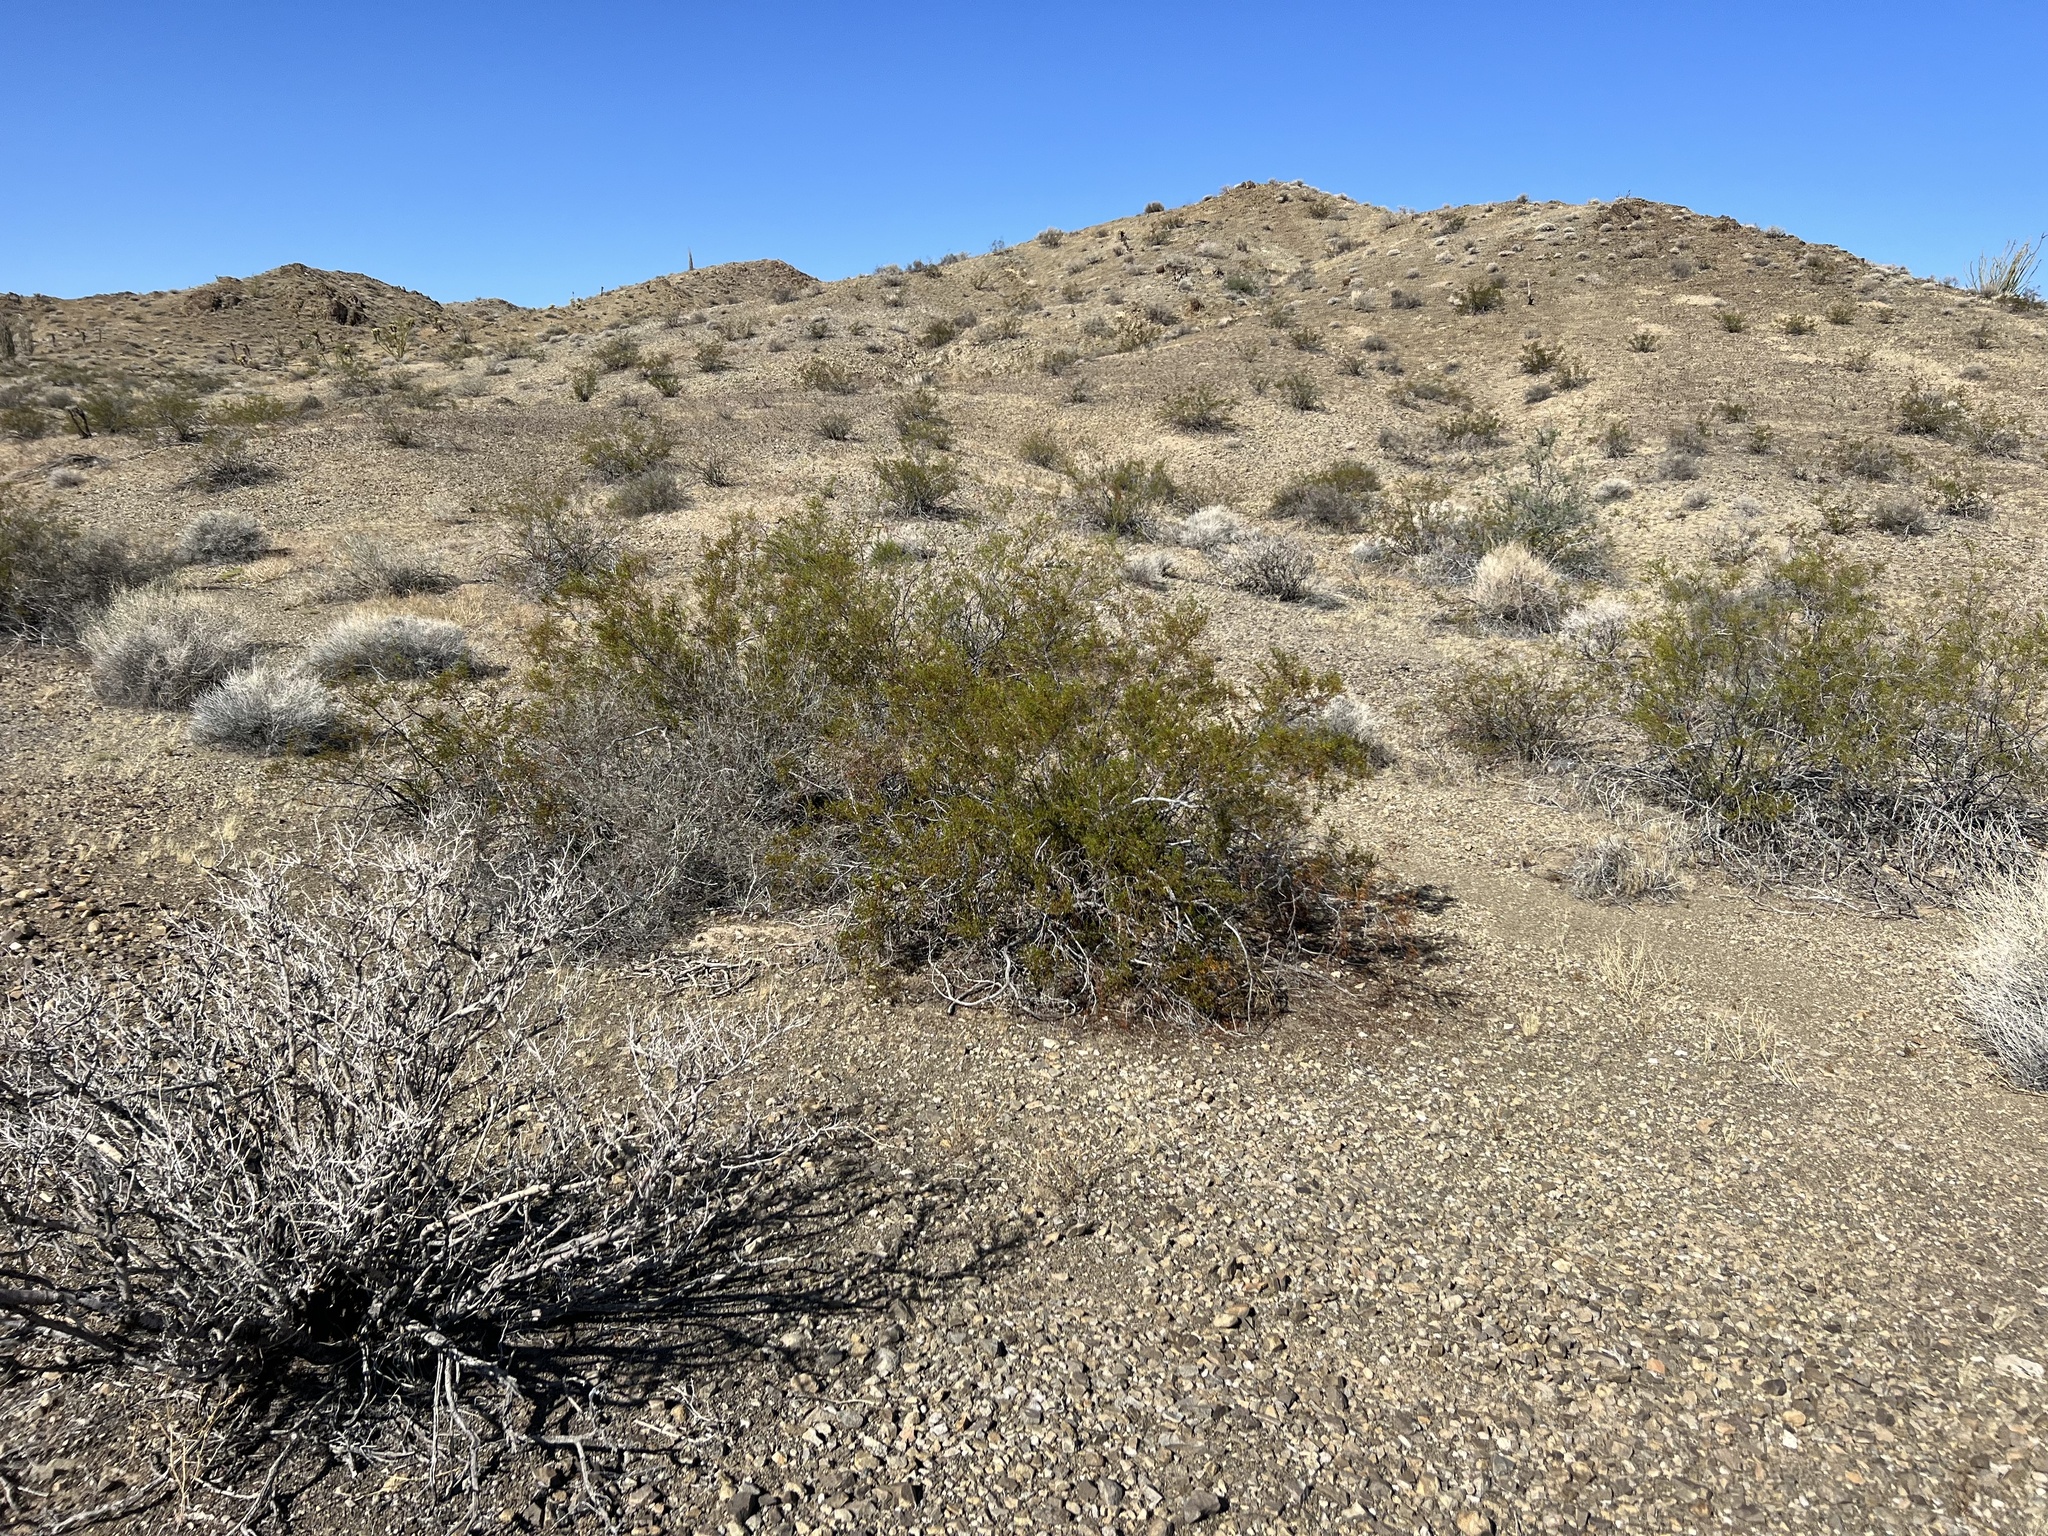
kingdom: Plantae
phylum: Tracheophyta
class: Magnoliopsida
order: Zygophyllales
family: Zygophyllaceae
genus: Larrea
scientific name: Larrea tridentata
